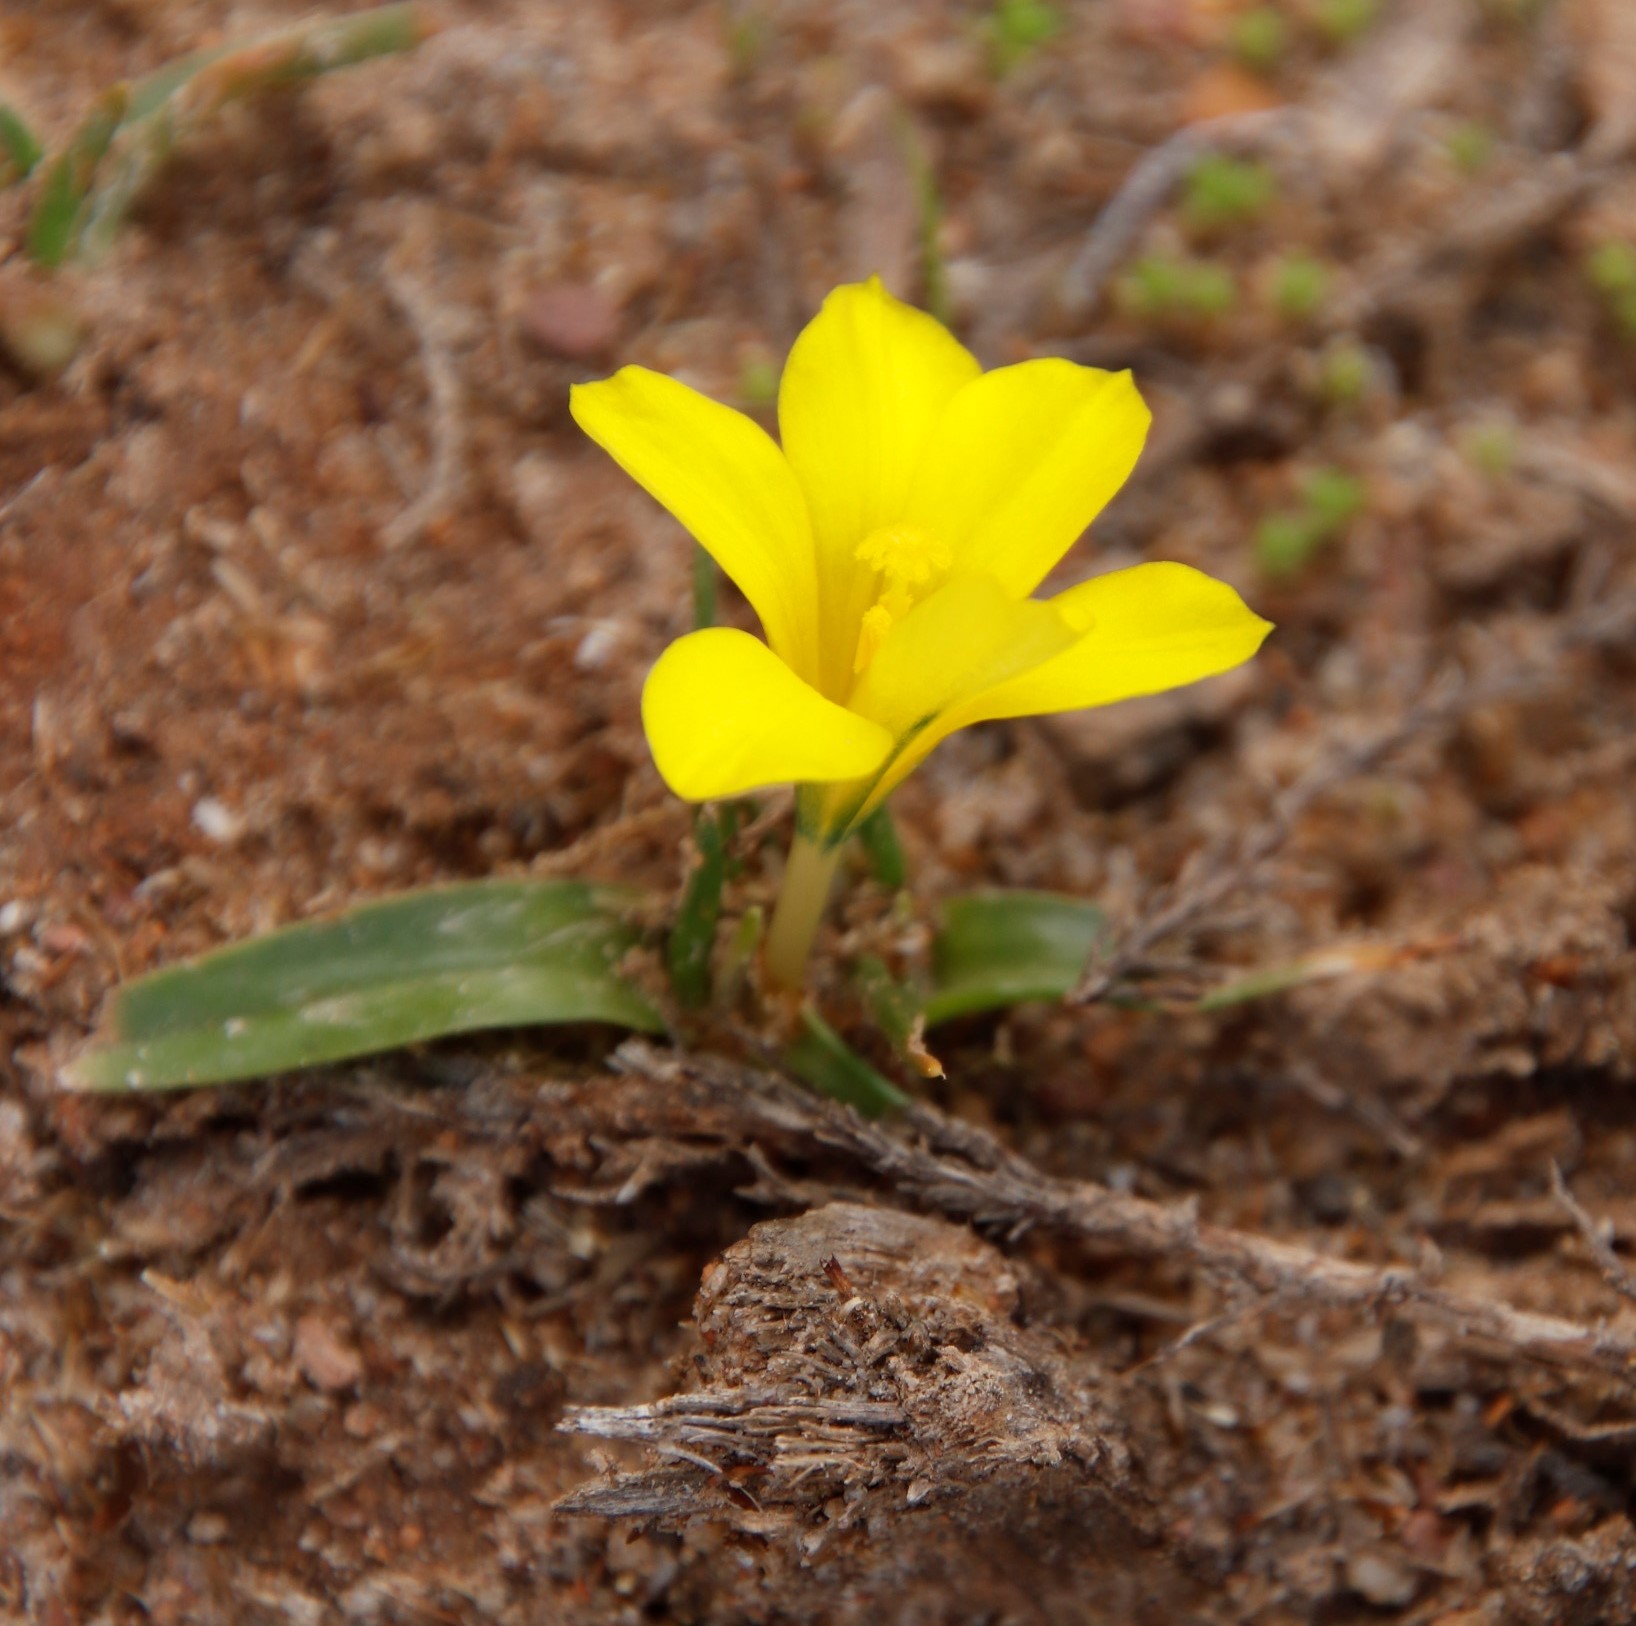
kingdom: Plantae
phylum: Tracheophyta
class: Liliopsida
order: Asparagales
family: Iridaceae
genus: Moraea
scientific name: Moraea fugacissima
